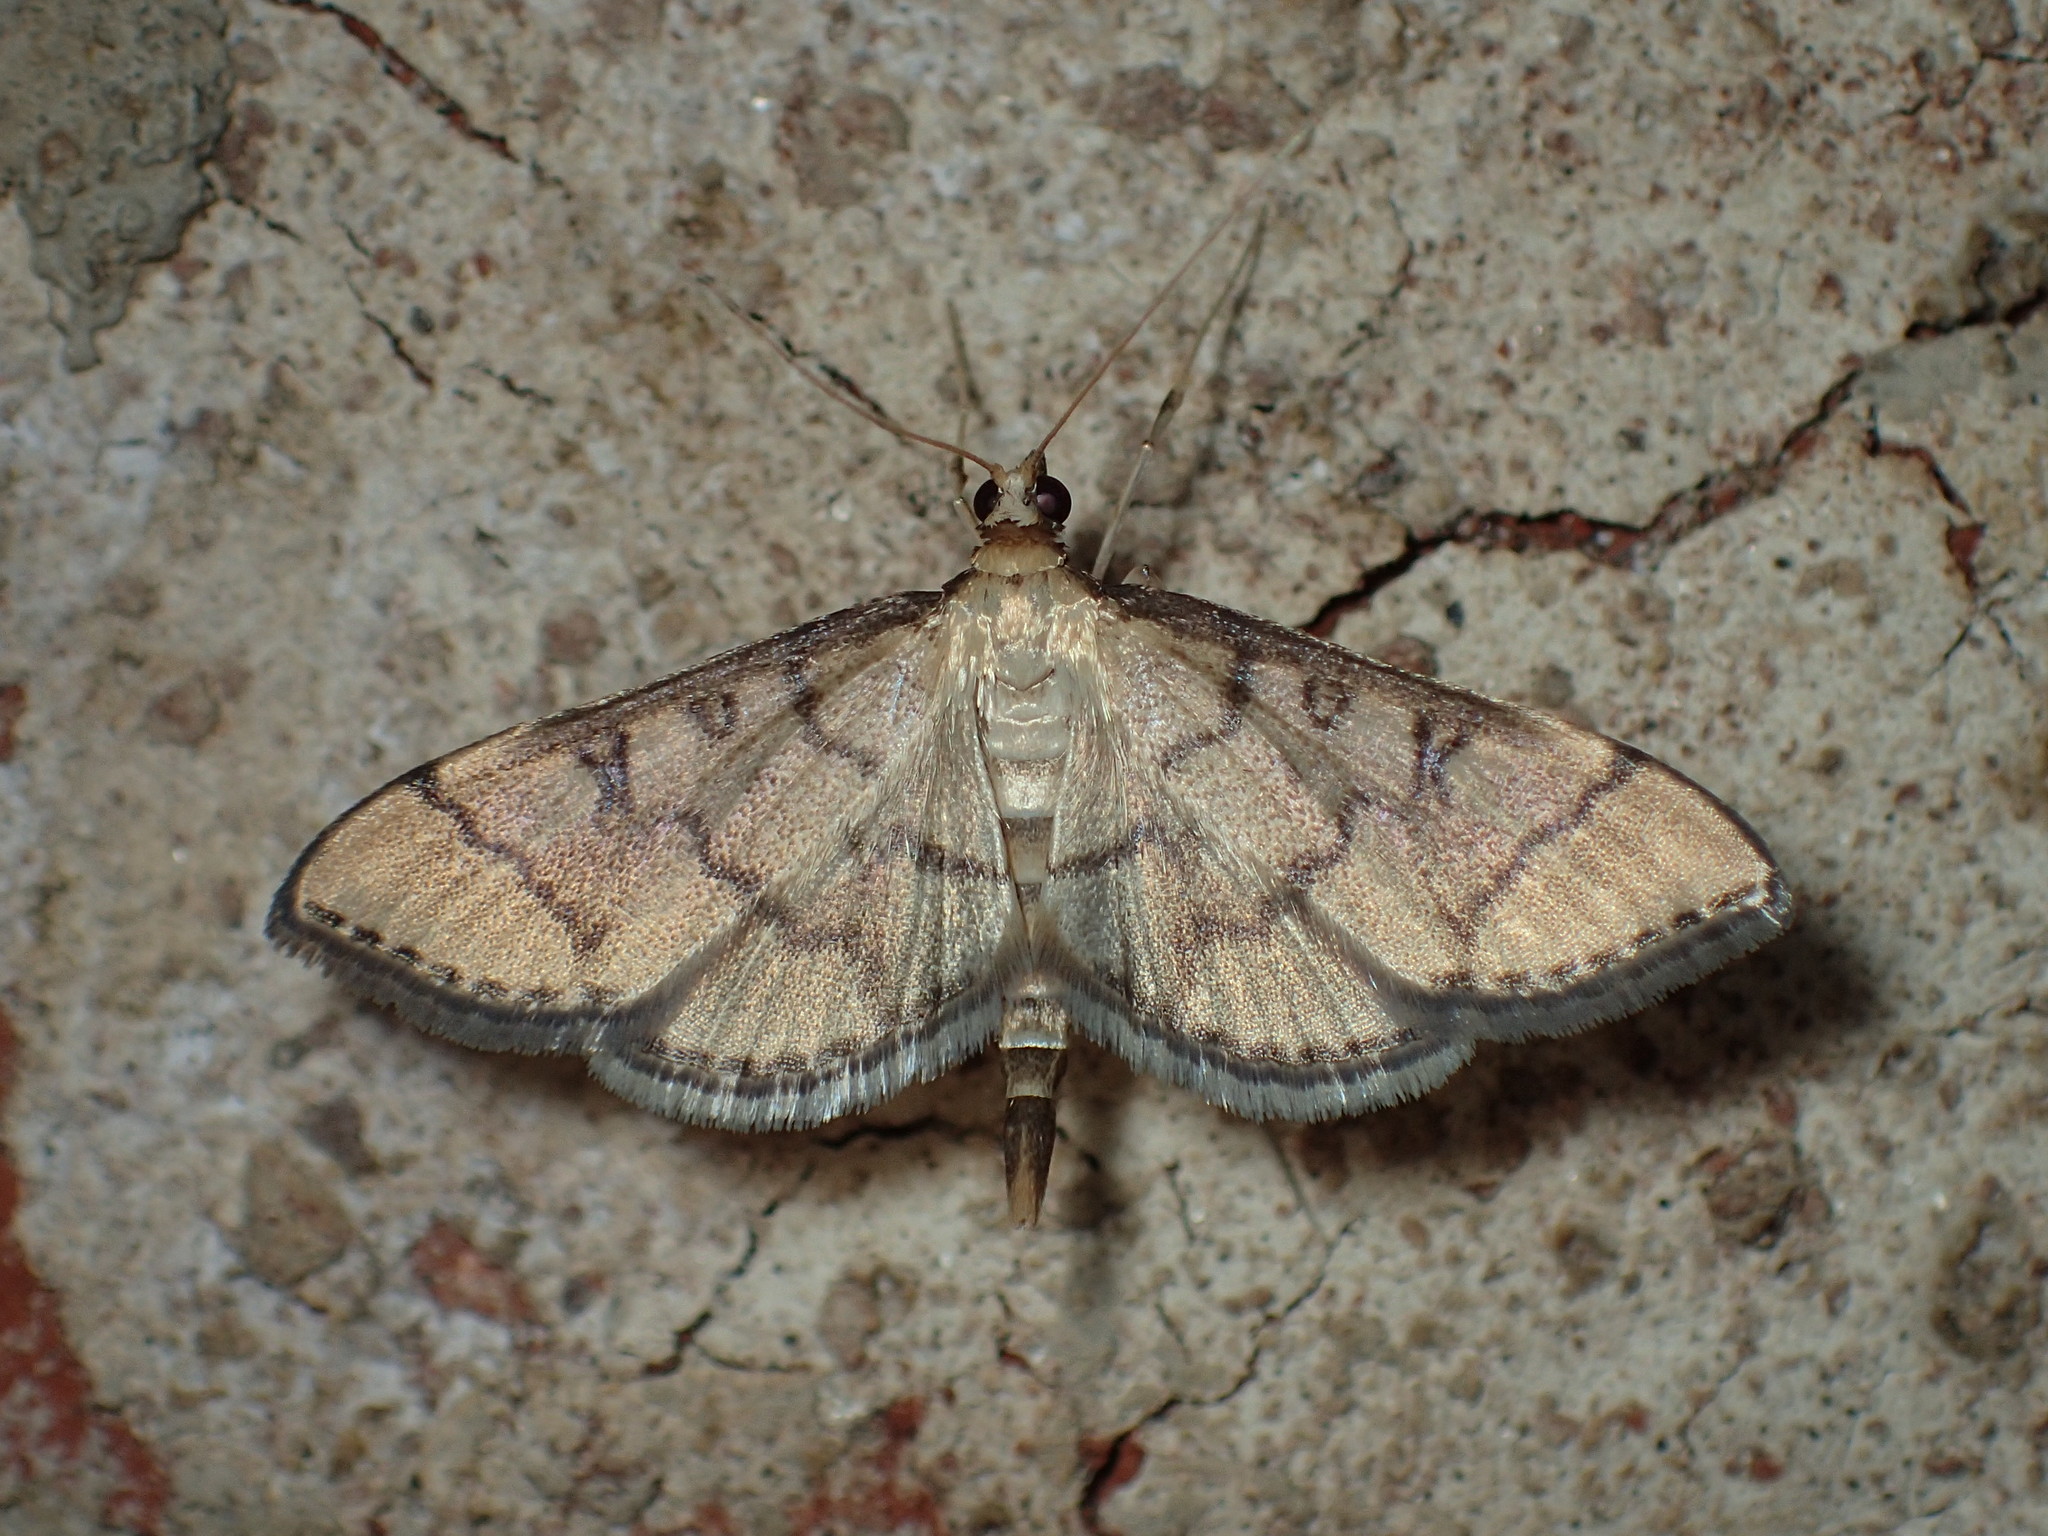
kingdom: Animalia
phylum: Arthropoda
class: Insecta
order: Lepidoptera
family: Crambidae
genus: Lamprosema
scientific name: Lamprosema Blepharomastix ranalis
